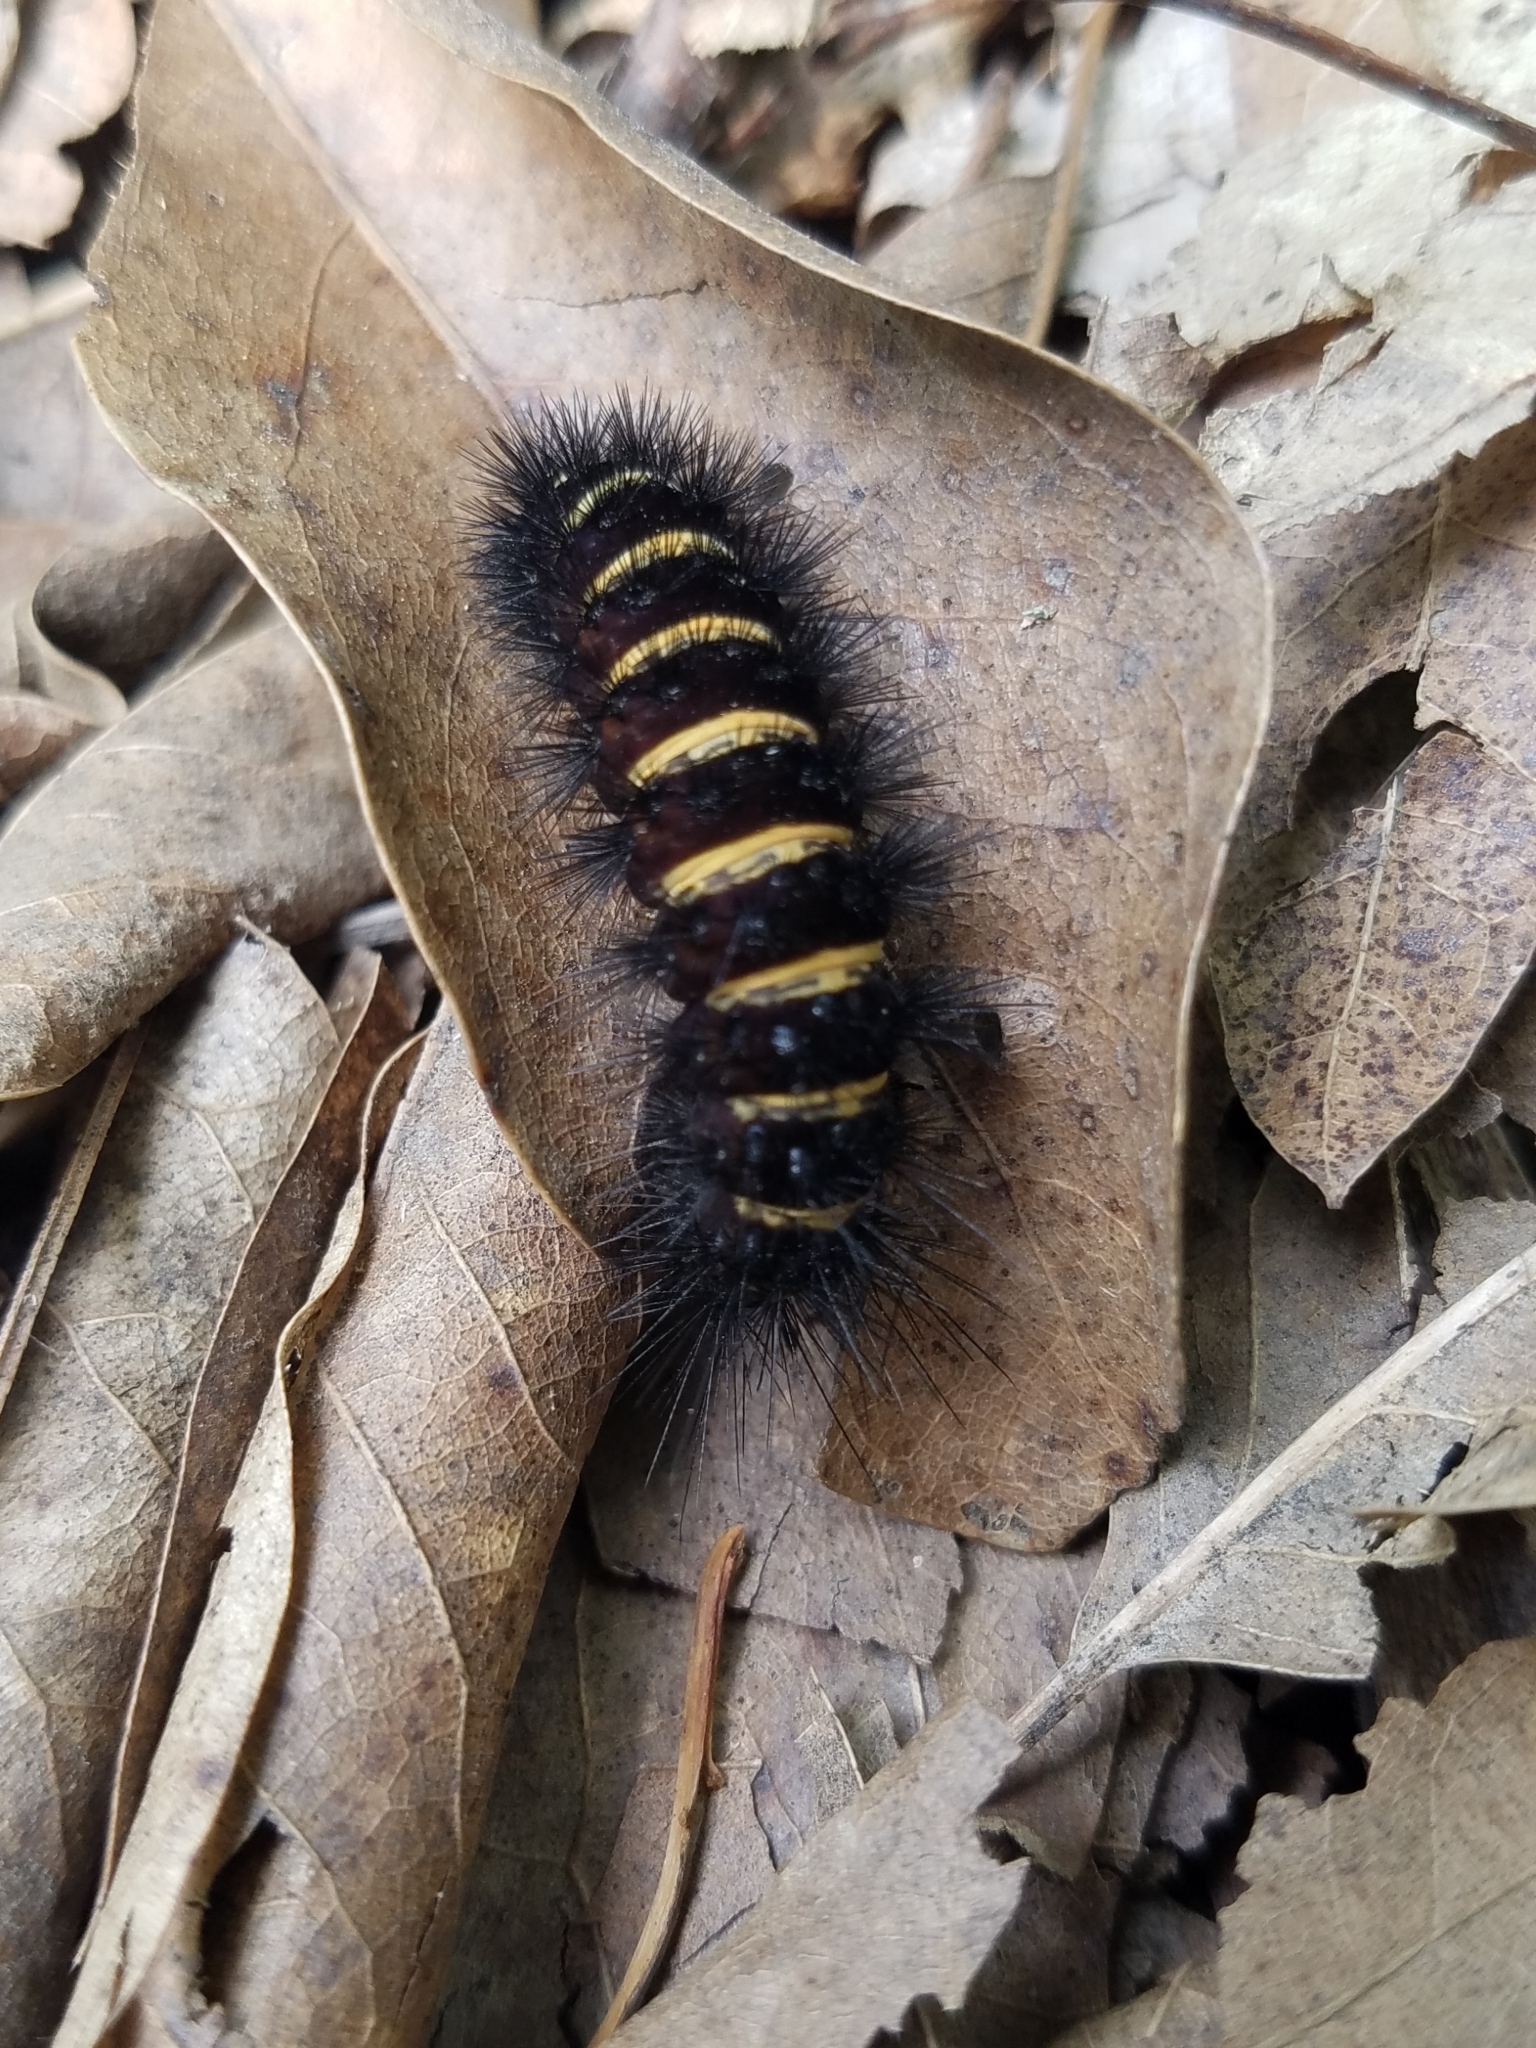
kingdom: Animalia
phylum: Arthropoda
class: Insecta
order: Lepidoptera
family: Erebidae
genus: Spilosoma
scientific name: Spilosoma congrua
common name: Agreeable tiger moth
